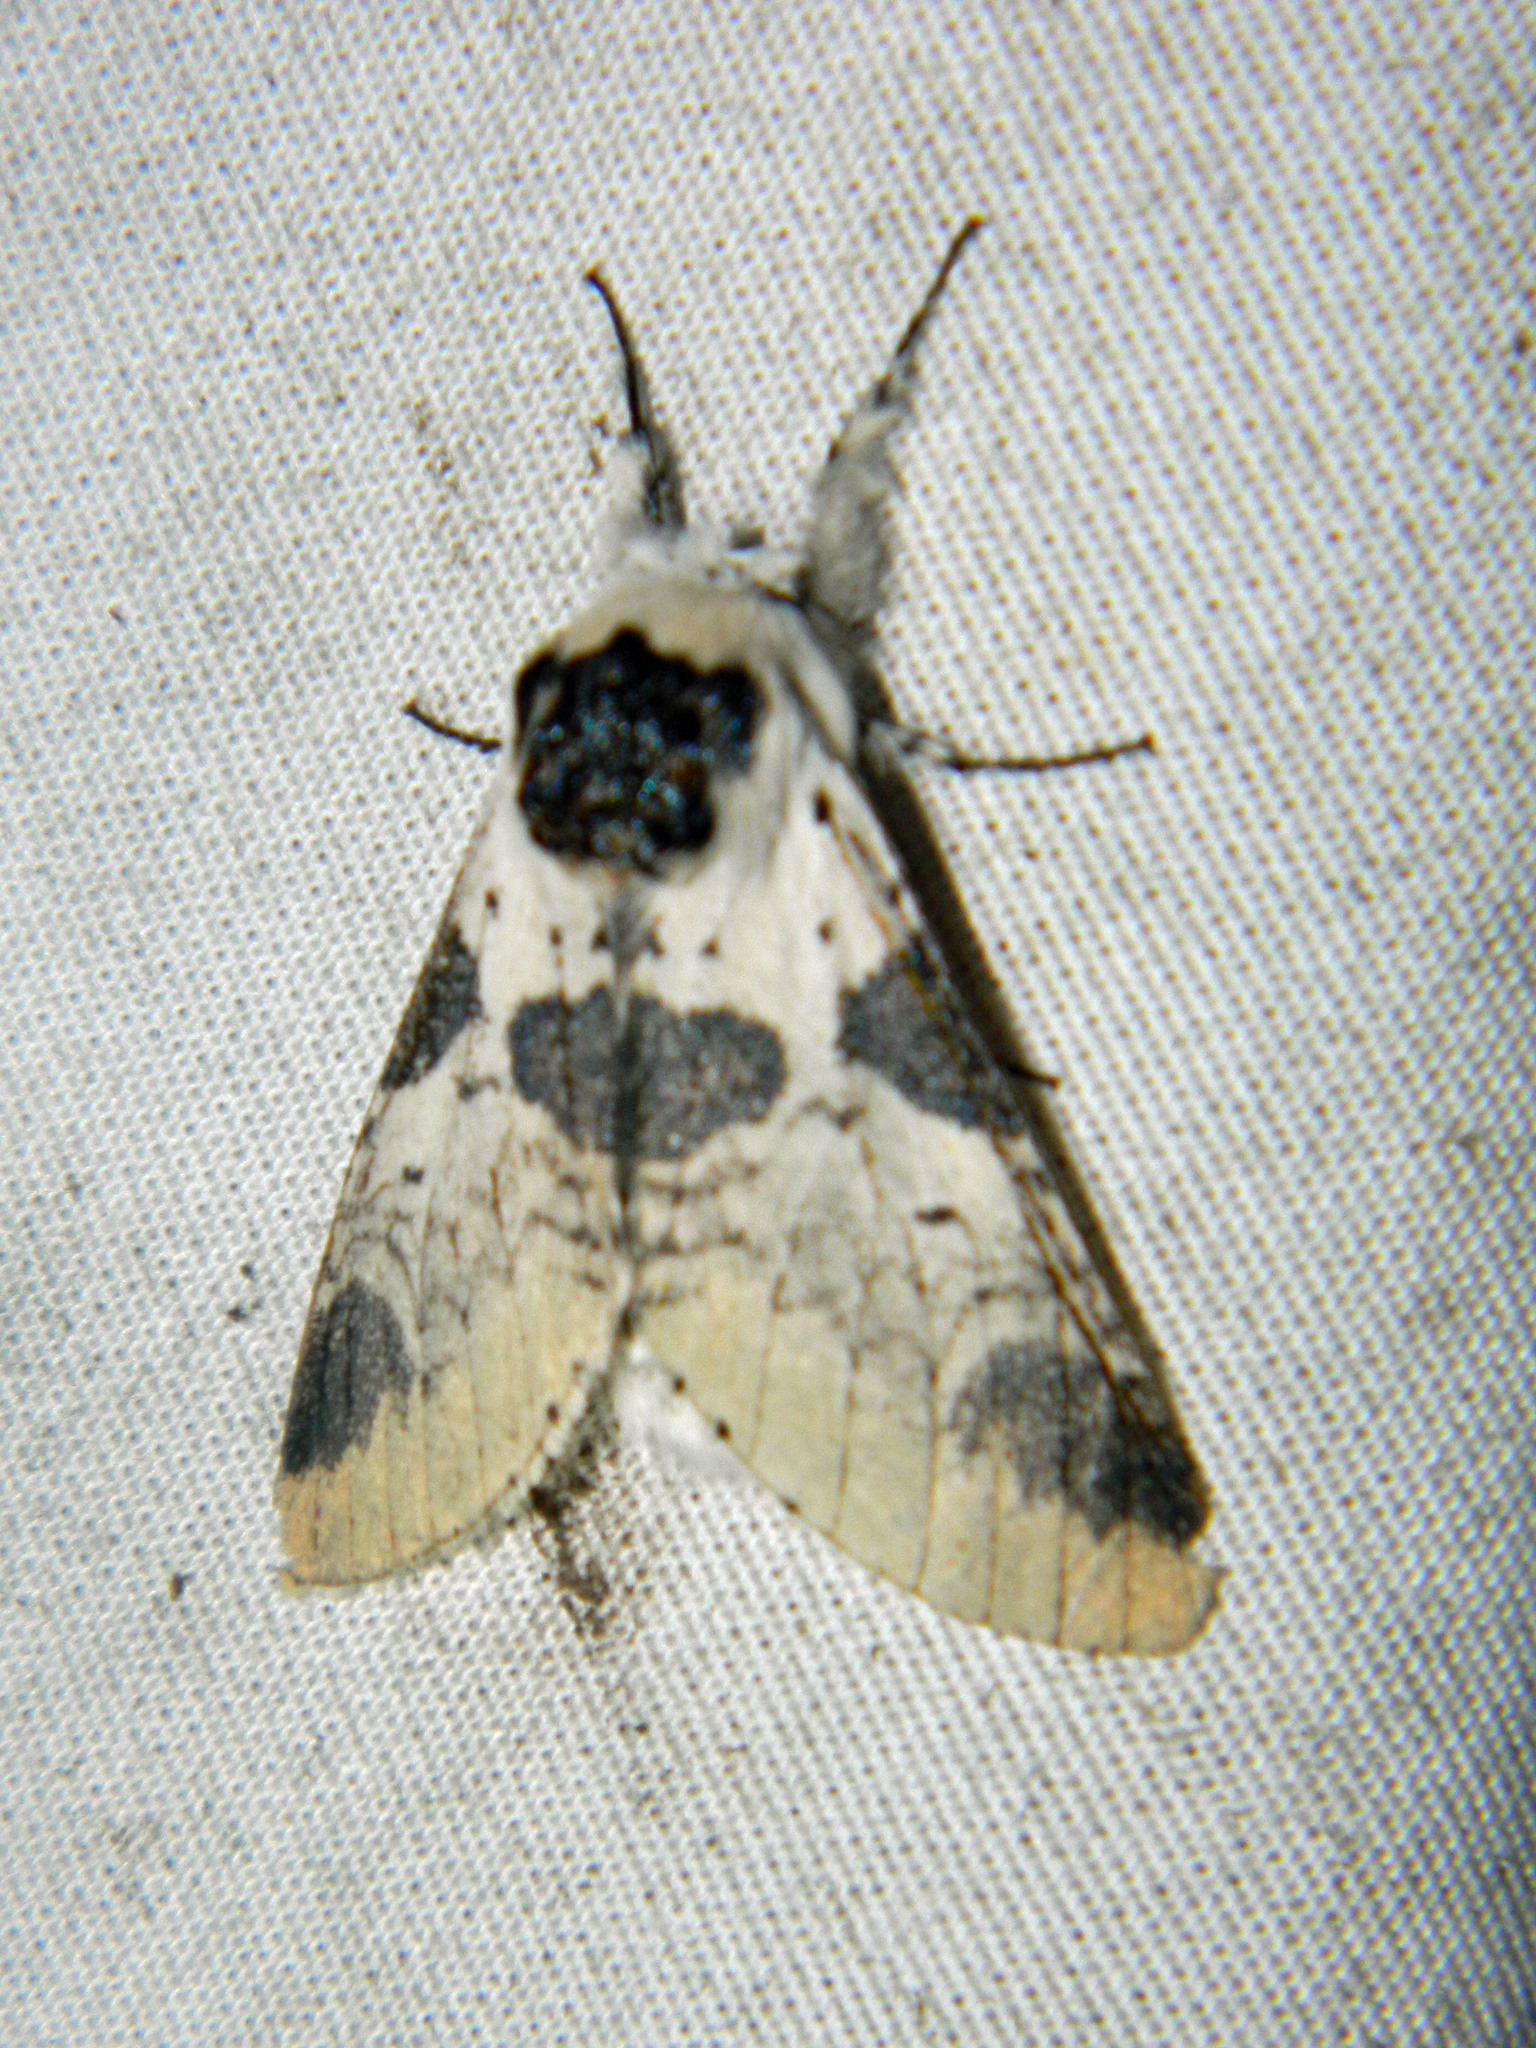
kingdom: Animalia
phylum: Arthropoda
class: Insecta
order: Lepidoptera
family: Notodontidae
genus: Furcula
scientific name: Furcula modesta
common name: Modest furcula moth
